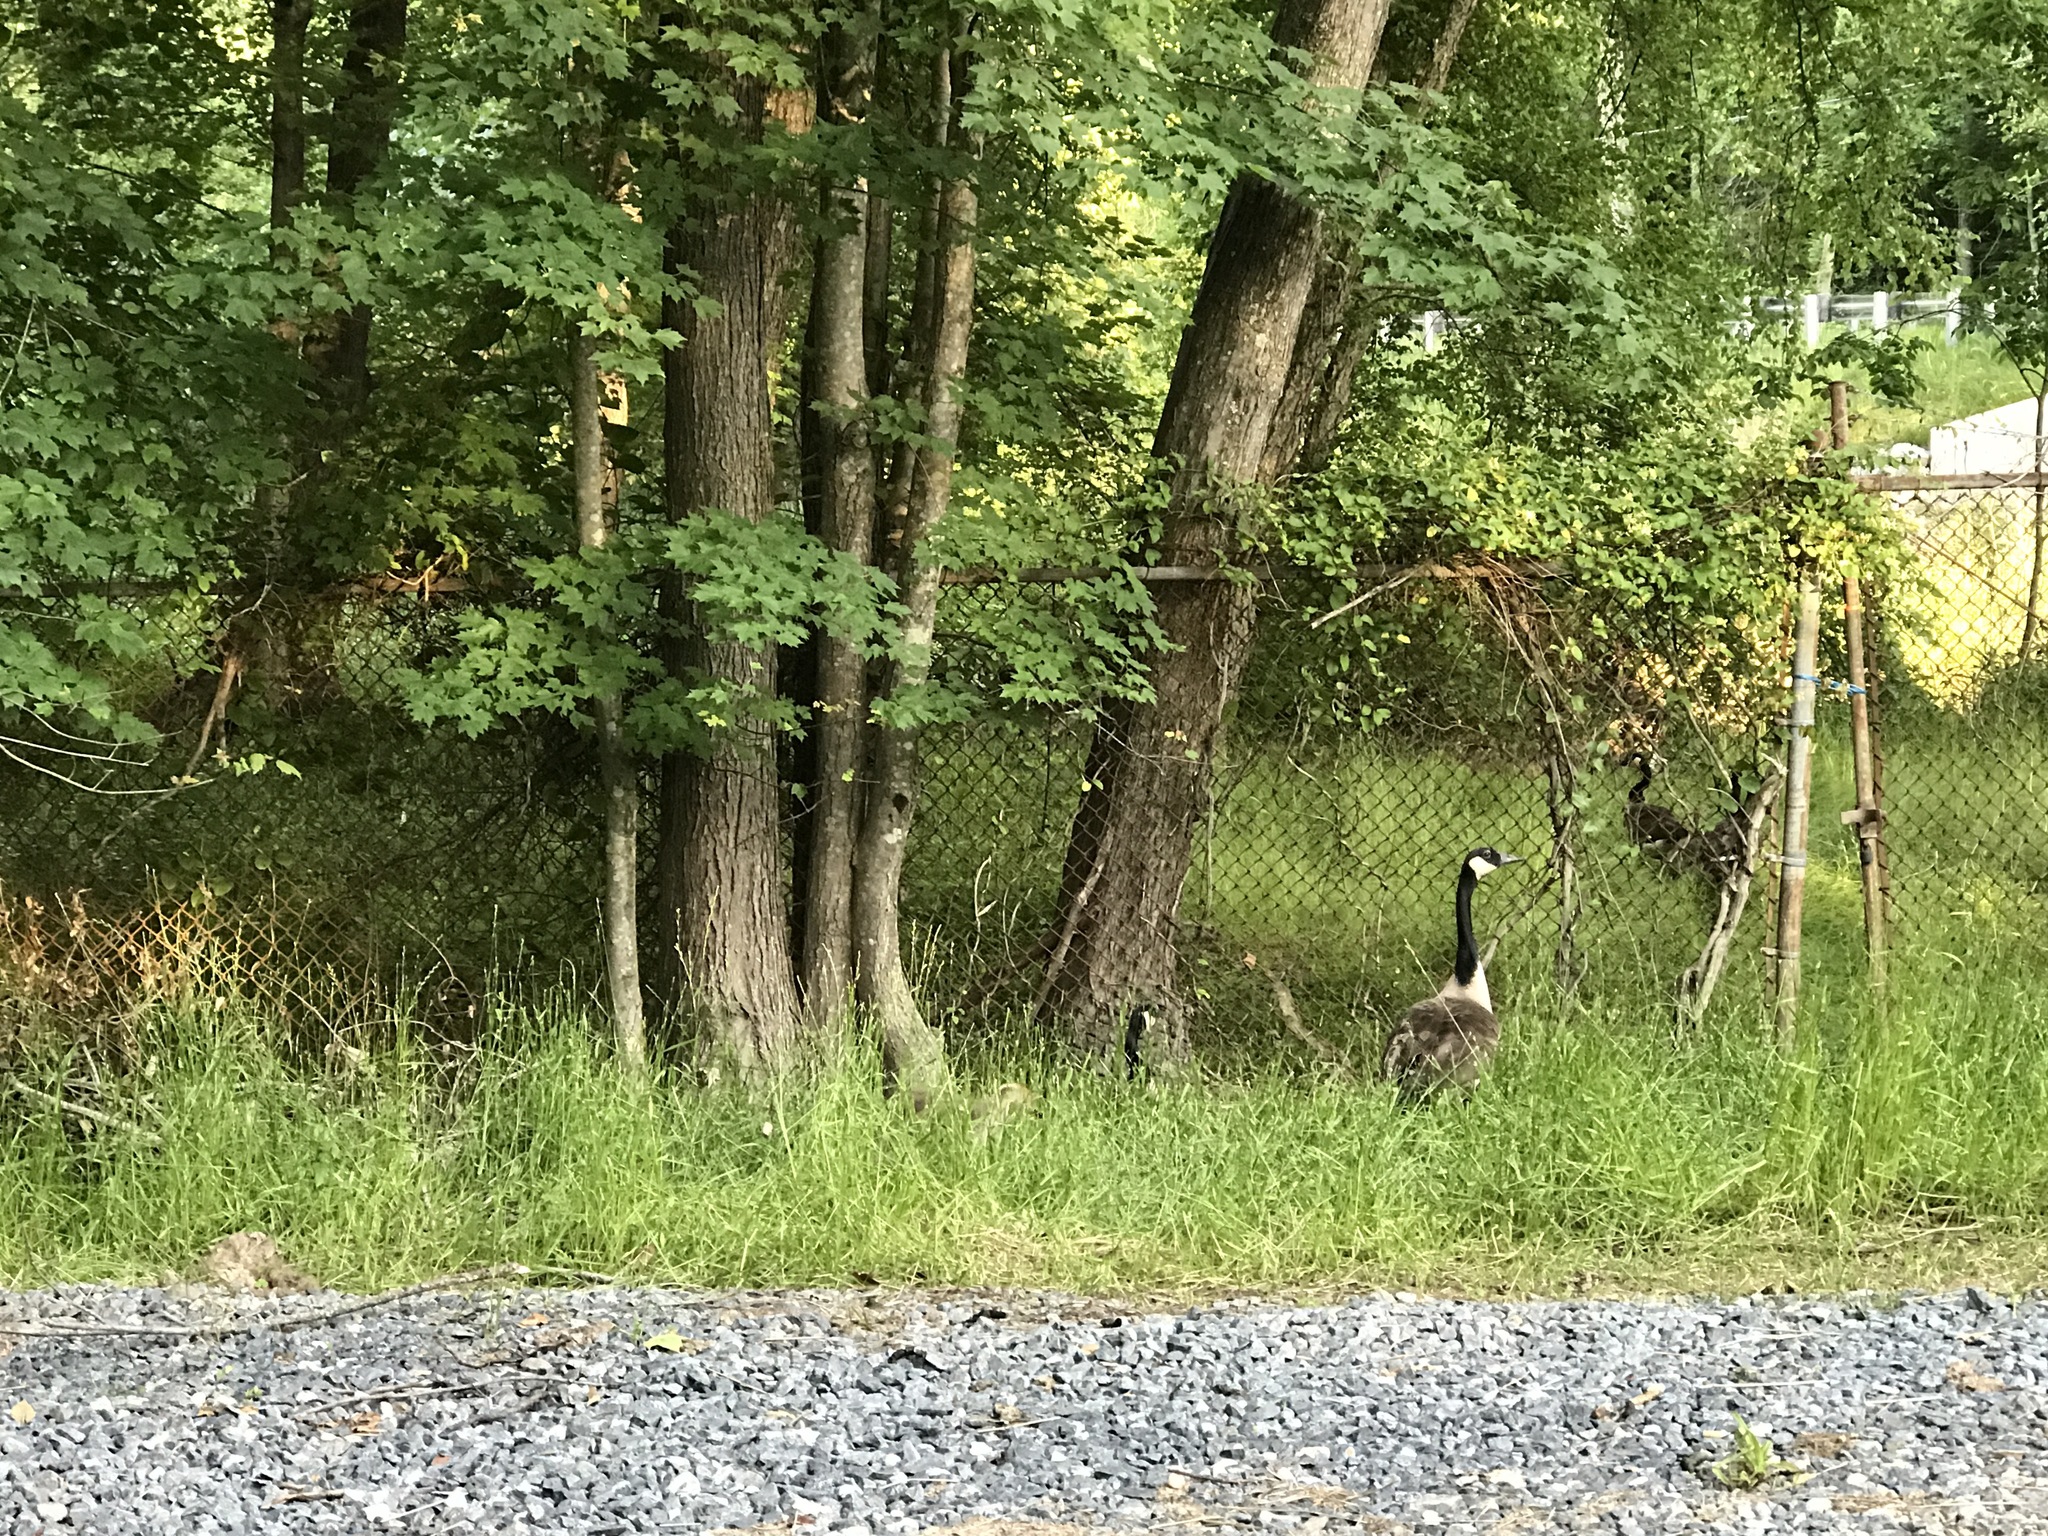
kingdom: Animalia
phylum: Chordata
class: Aves
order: Anseriformes
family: Anatidae
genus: Branta
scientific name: Branta canadensis
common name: Canada goose
